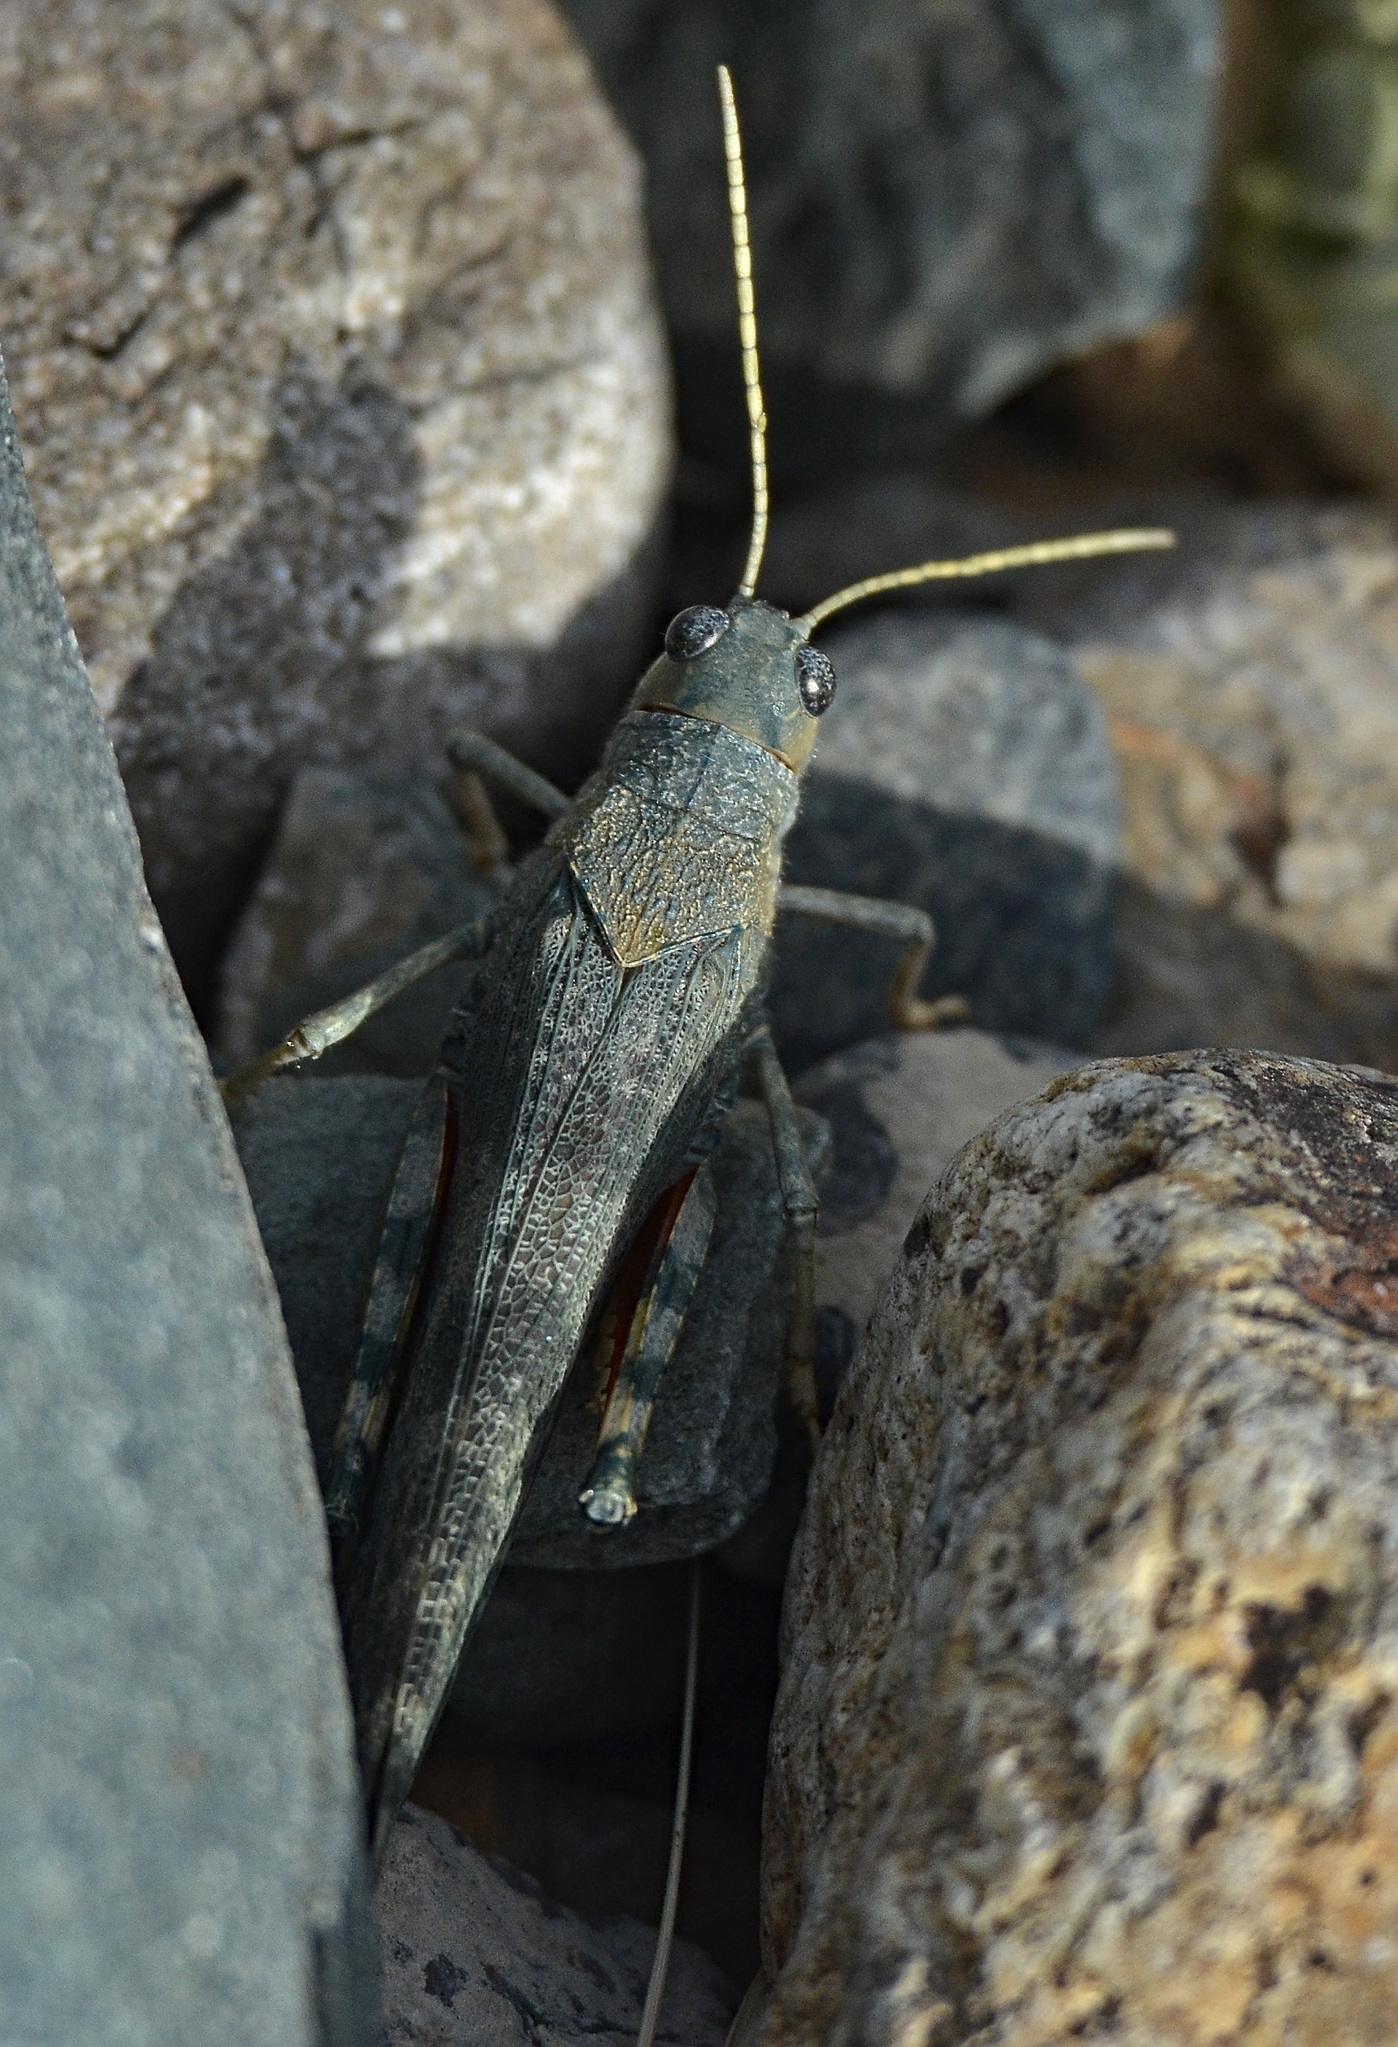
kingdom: Animalia
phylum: Arthropoda
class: Insecta
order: Orthoptera
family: Acrididae
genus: Bryodema
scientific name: Bryodema gebleri
